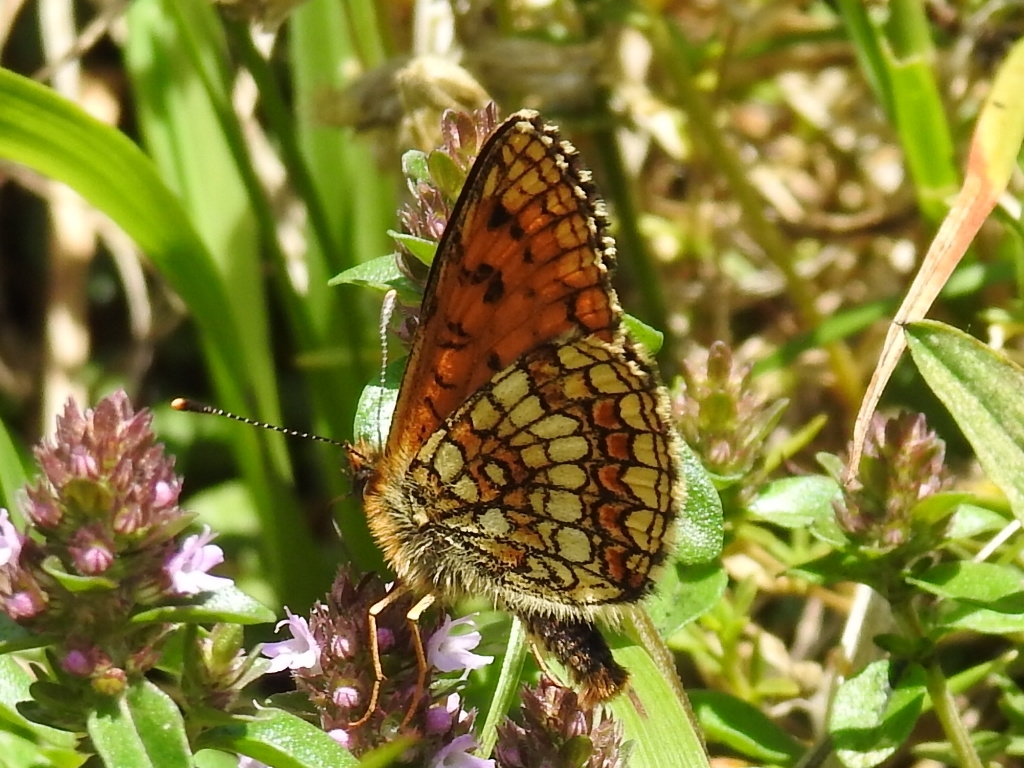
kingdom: Animalia
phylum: Arthropoda
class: Insecta
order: Lepidoptera
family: Nymphalidae
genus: Mellicta
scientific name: Mellicta athalia
